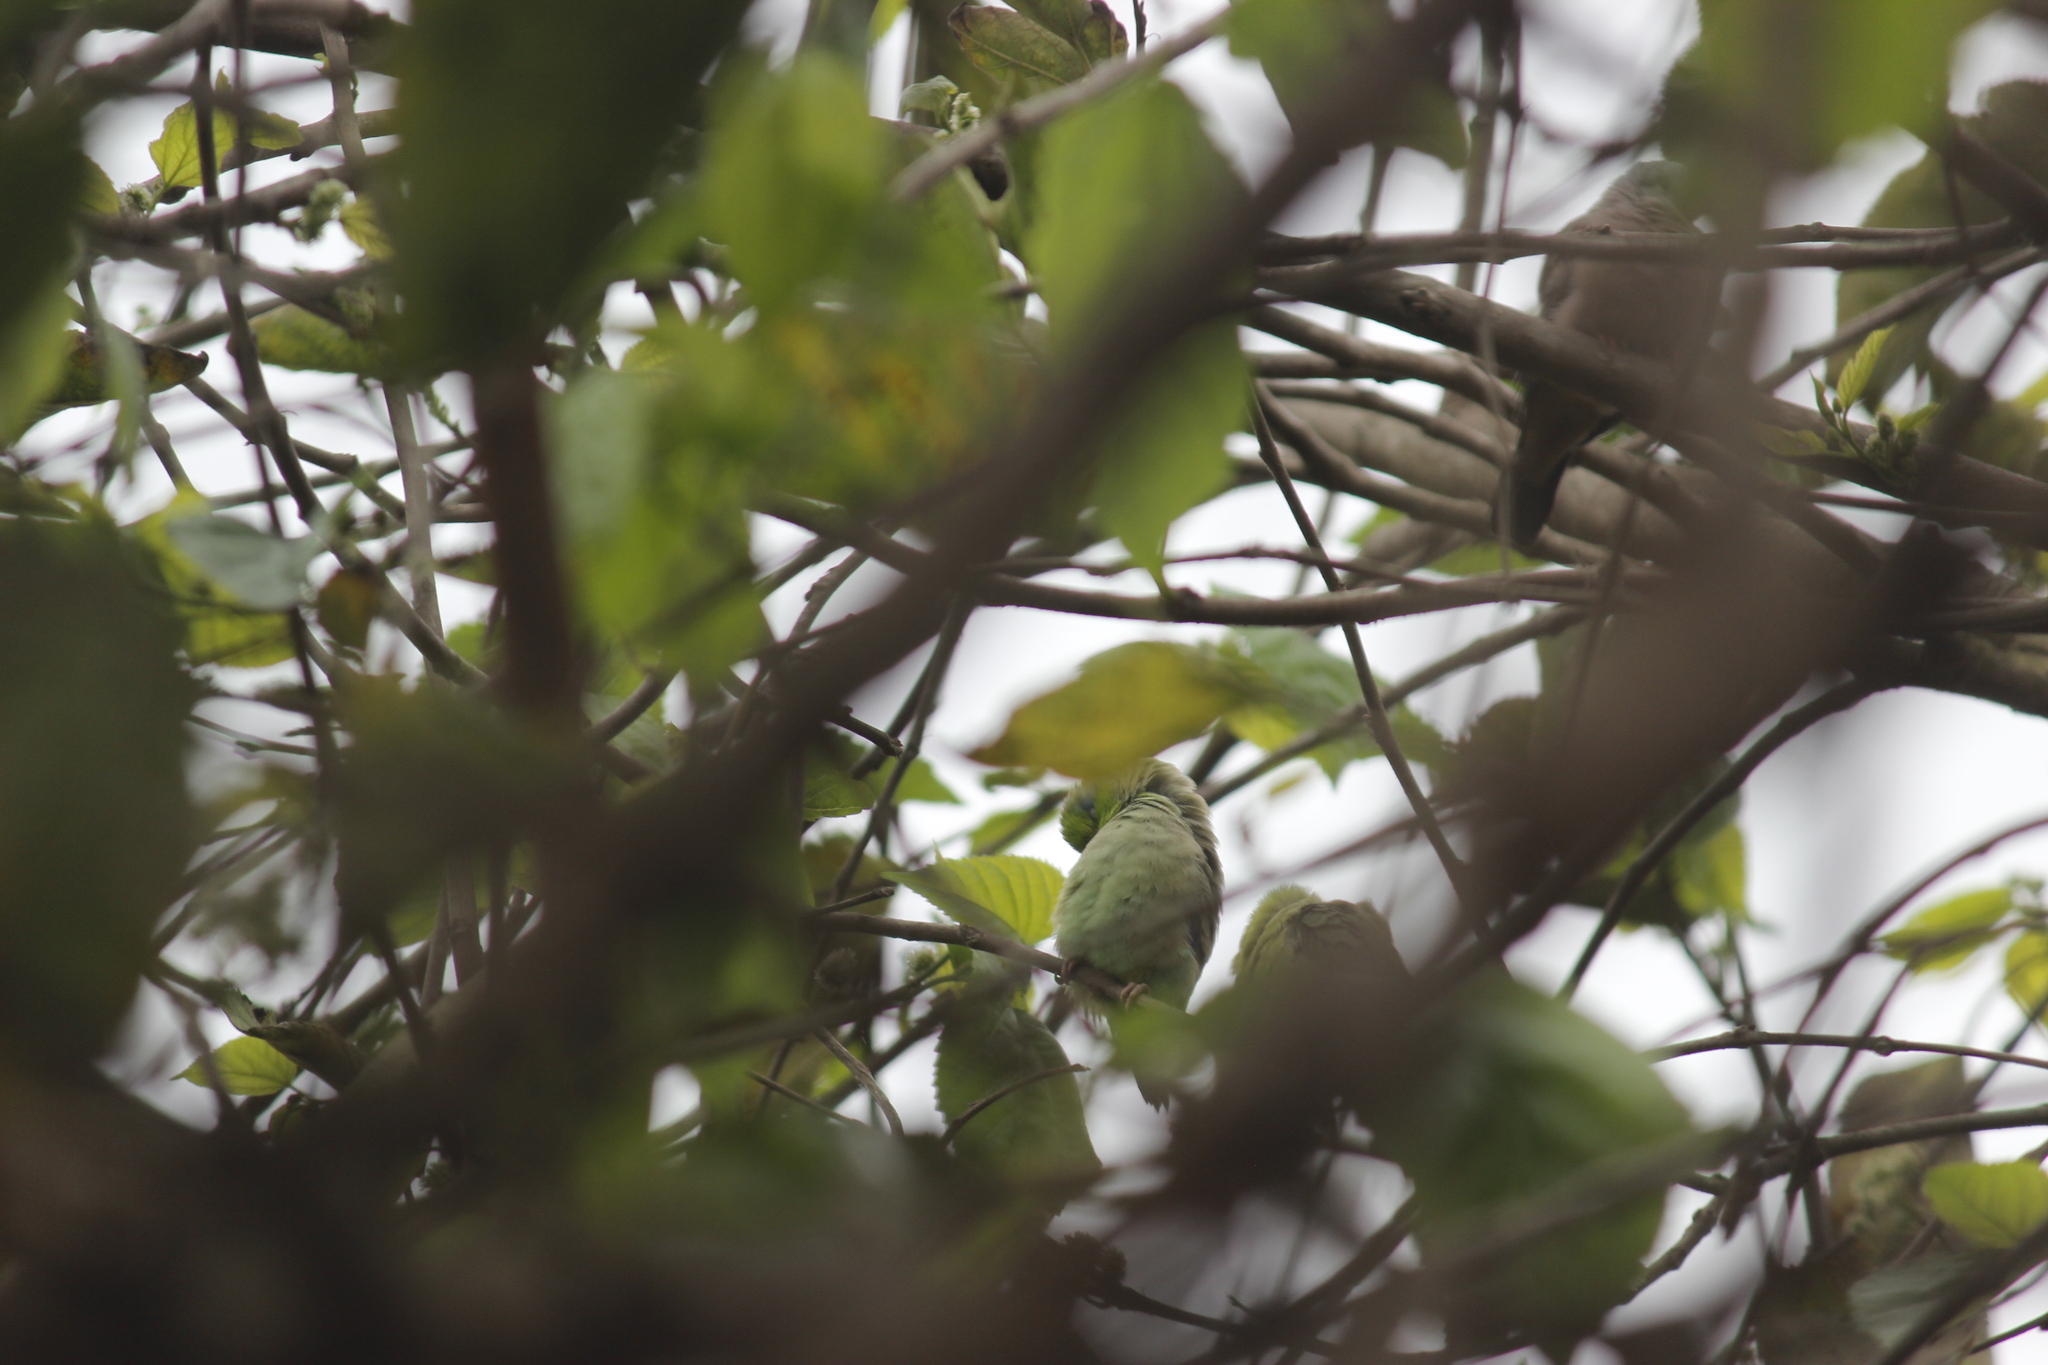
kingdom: Animalia
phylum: Chordata
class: Aves
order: Psittaciformes
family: Psittacidae
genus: Forpus
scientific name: Forpus coelestis
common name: Pacific parrotlet
